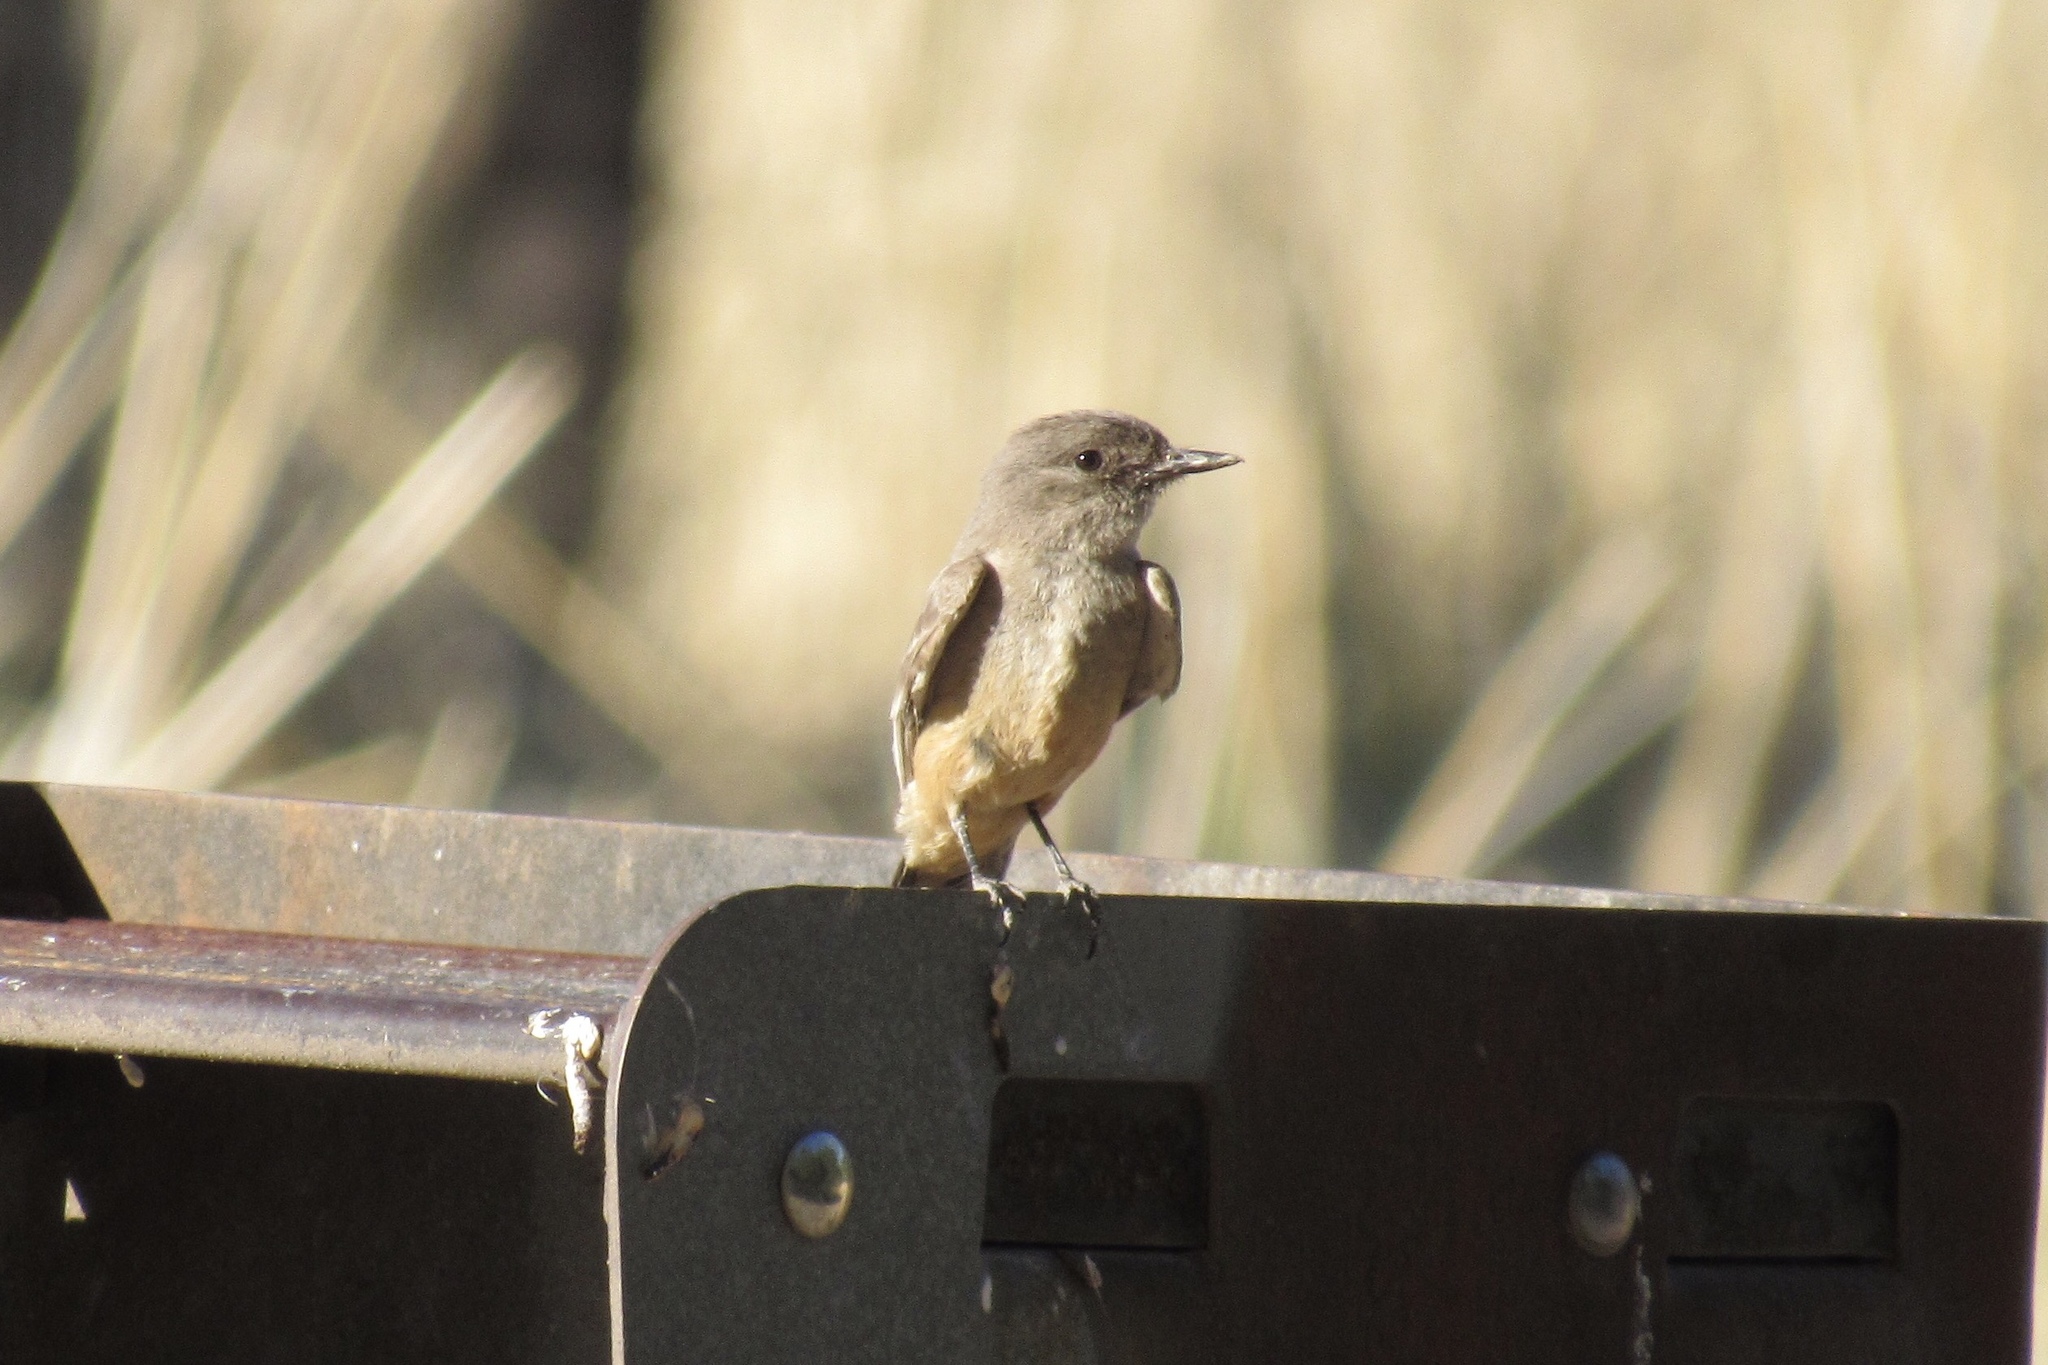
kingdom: Animalia
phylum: Chordata
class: Aves
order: Passeriformes
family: Tyrannidae
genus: Sayornis
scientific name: Sayornis saya
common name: Say's phoebe
